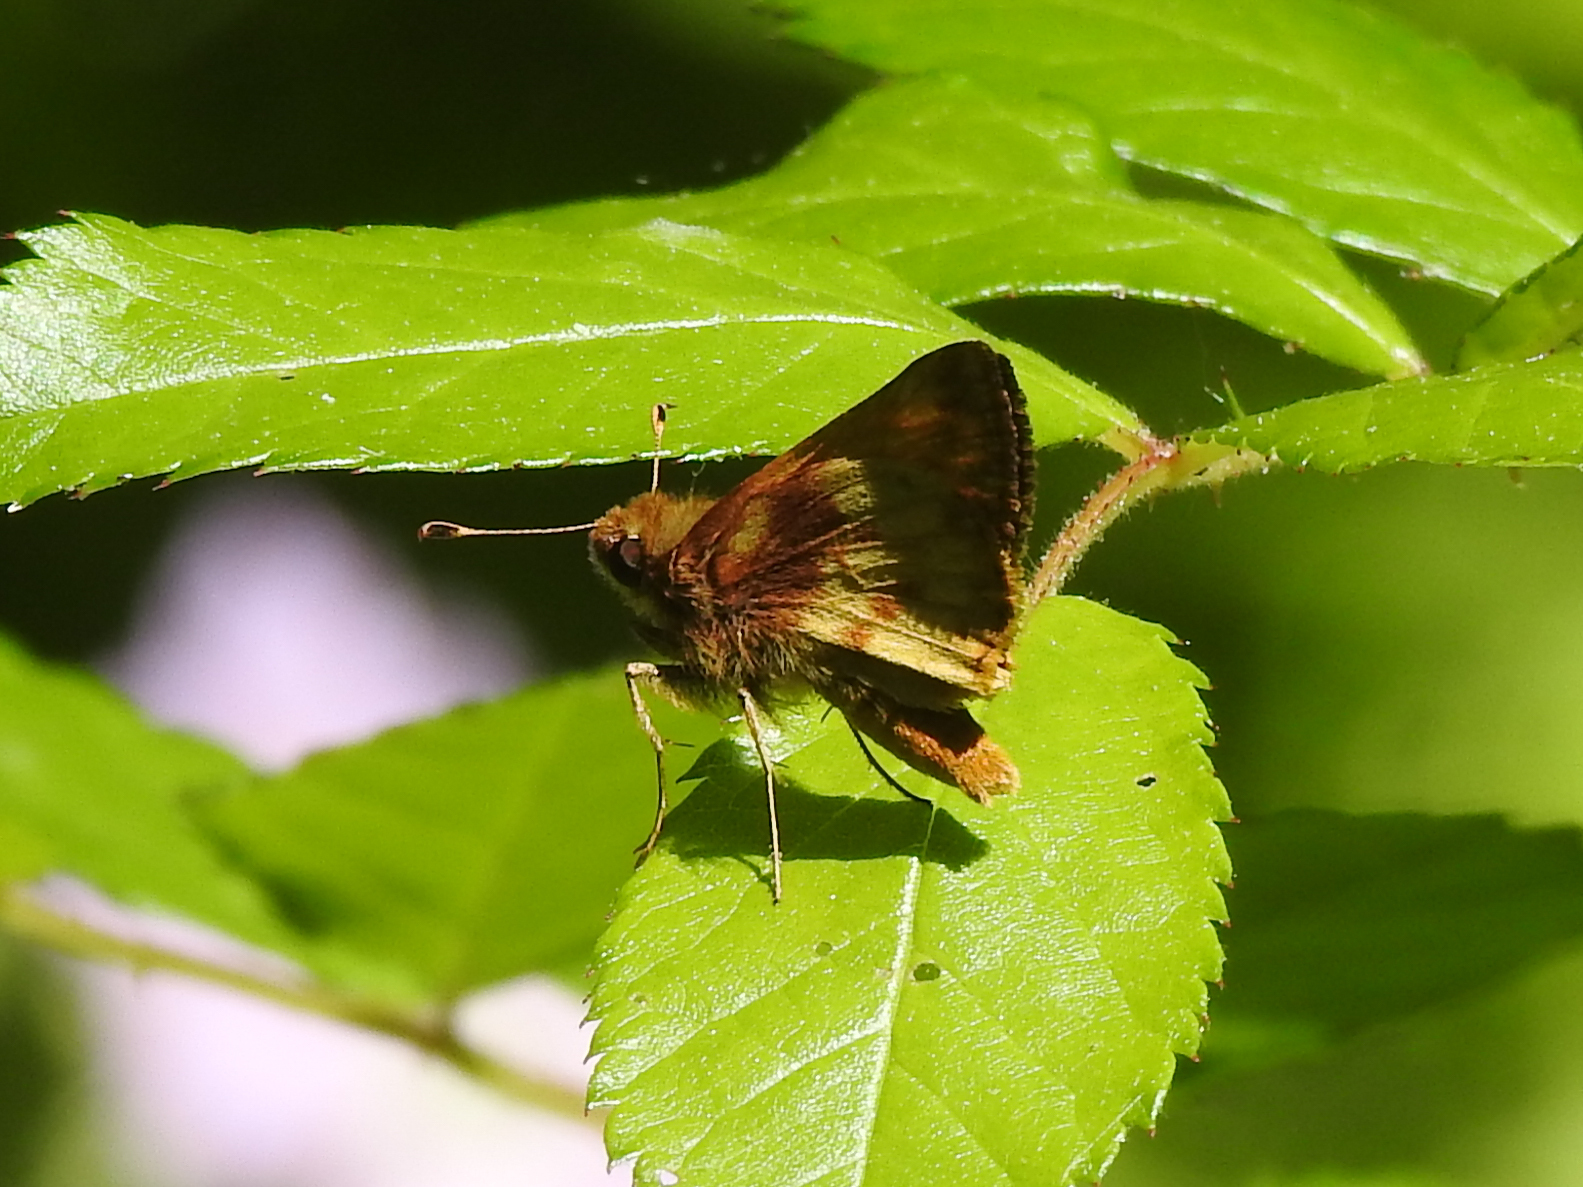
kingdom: Animalia
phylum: Arthropoda
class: Insecta
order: Lepidoptera
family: Hesperiidae
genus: Lon
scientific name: Lon zabulon
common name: Zabulon skipper
